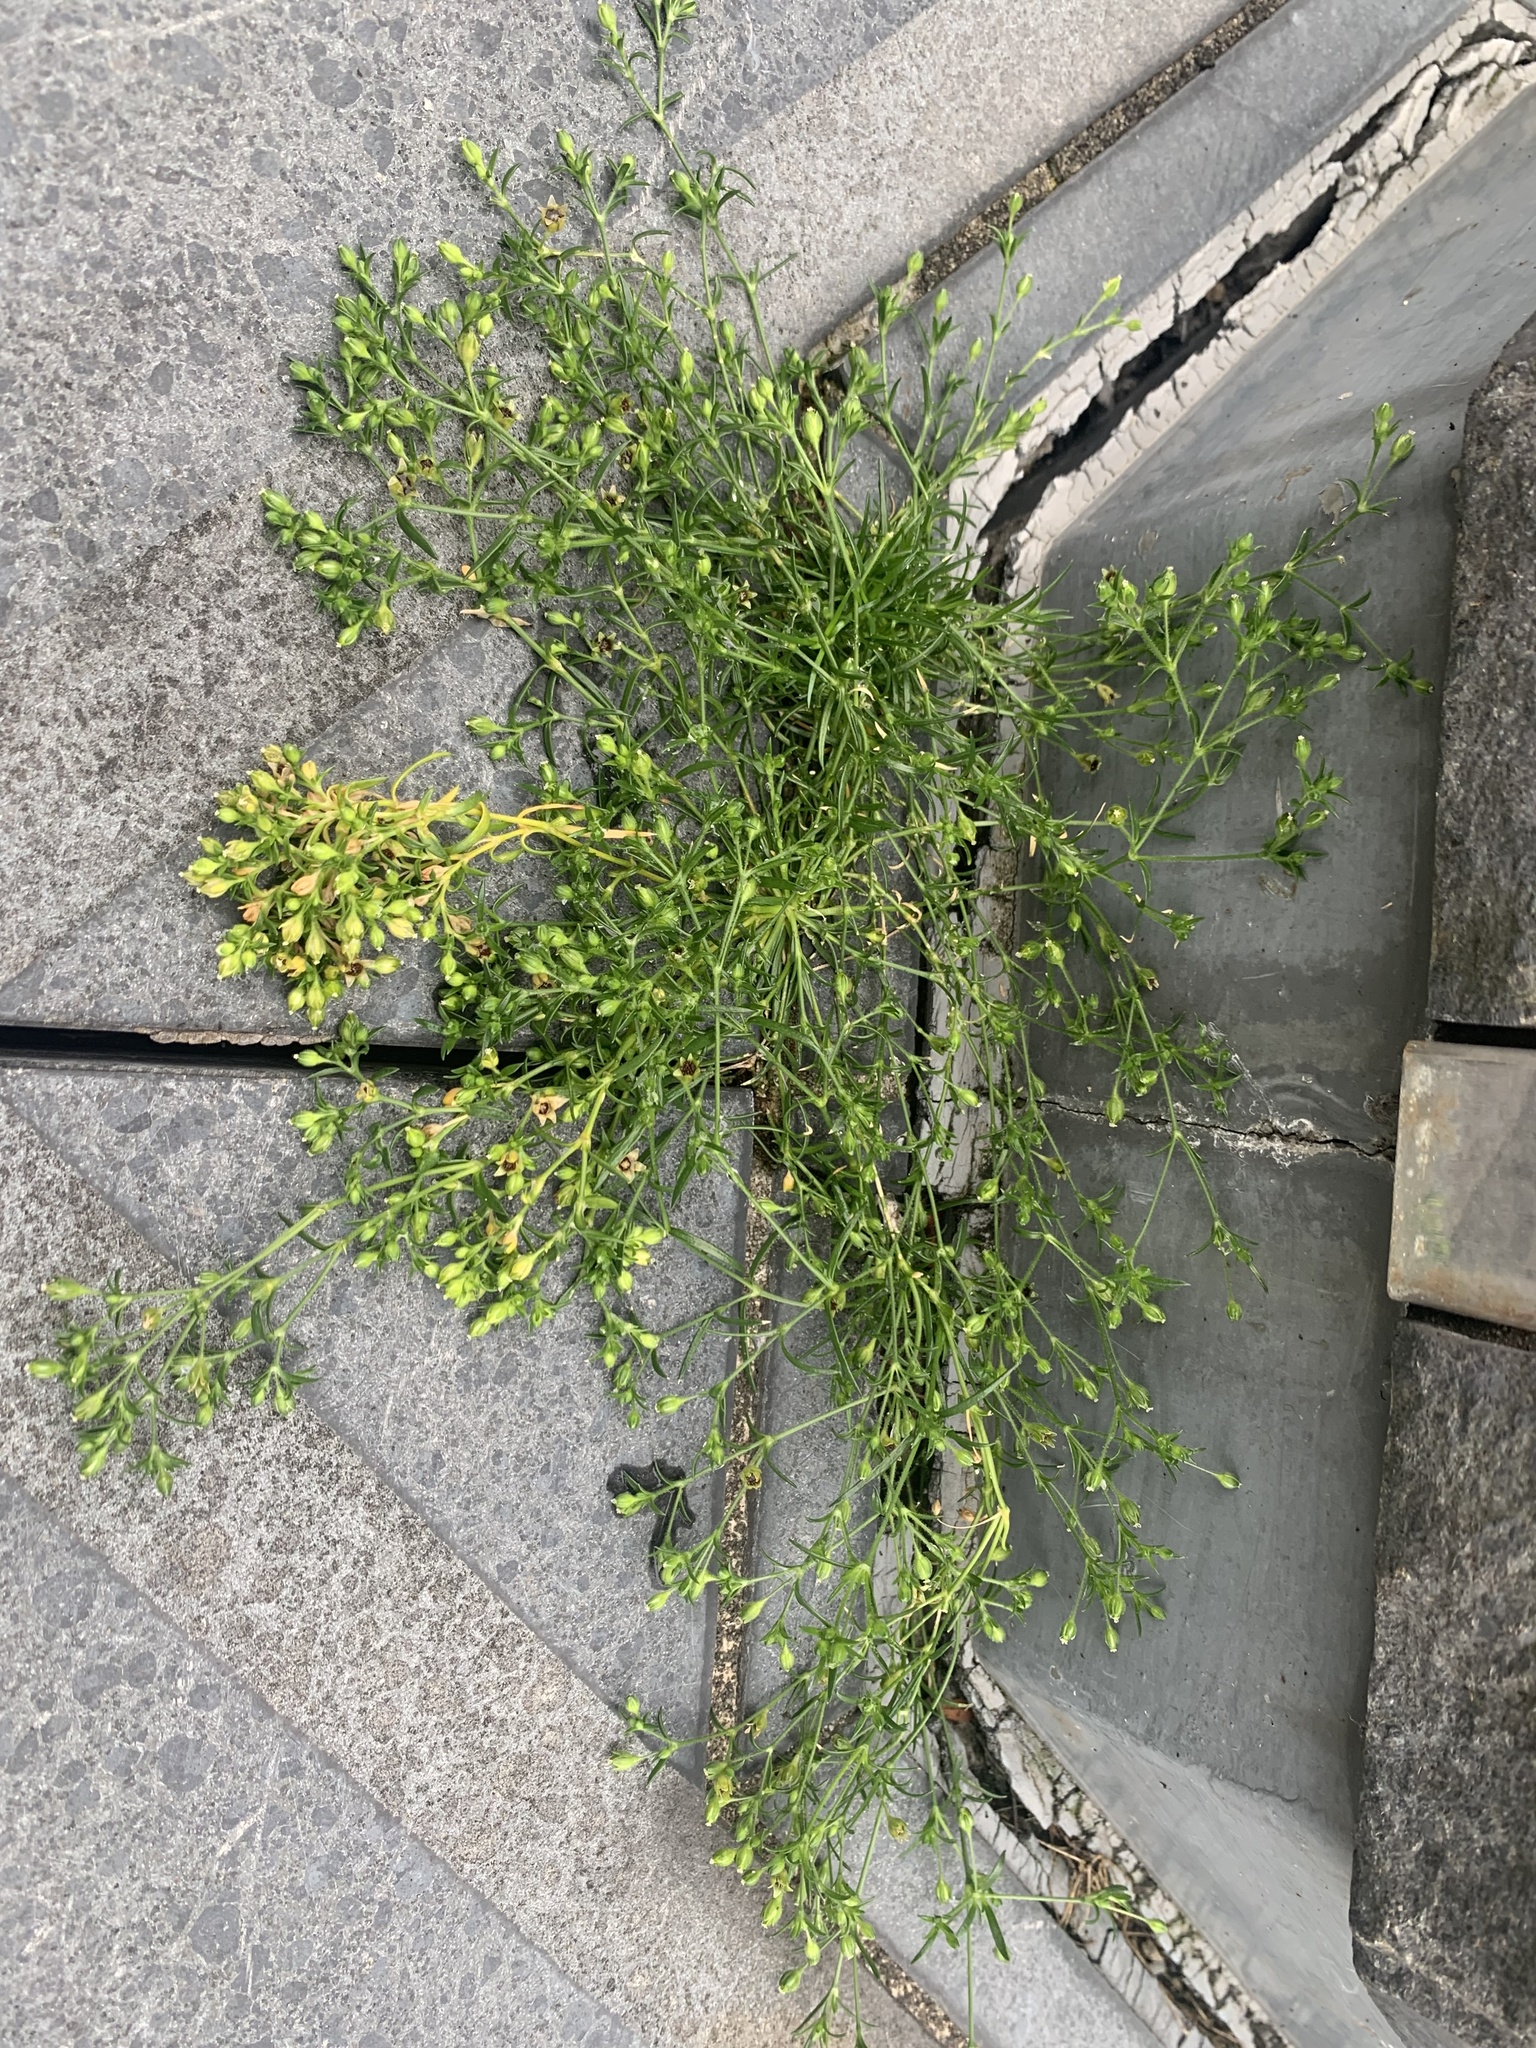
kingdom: Plantae
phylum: Tracheophyta
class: Magnoliopsida
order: Caryophyllales
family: Caryophyllaceae
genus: Sagina
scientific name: Sagina japonica
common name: Japanese pearlwort
